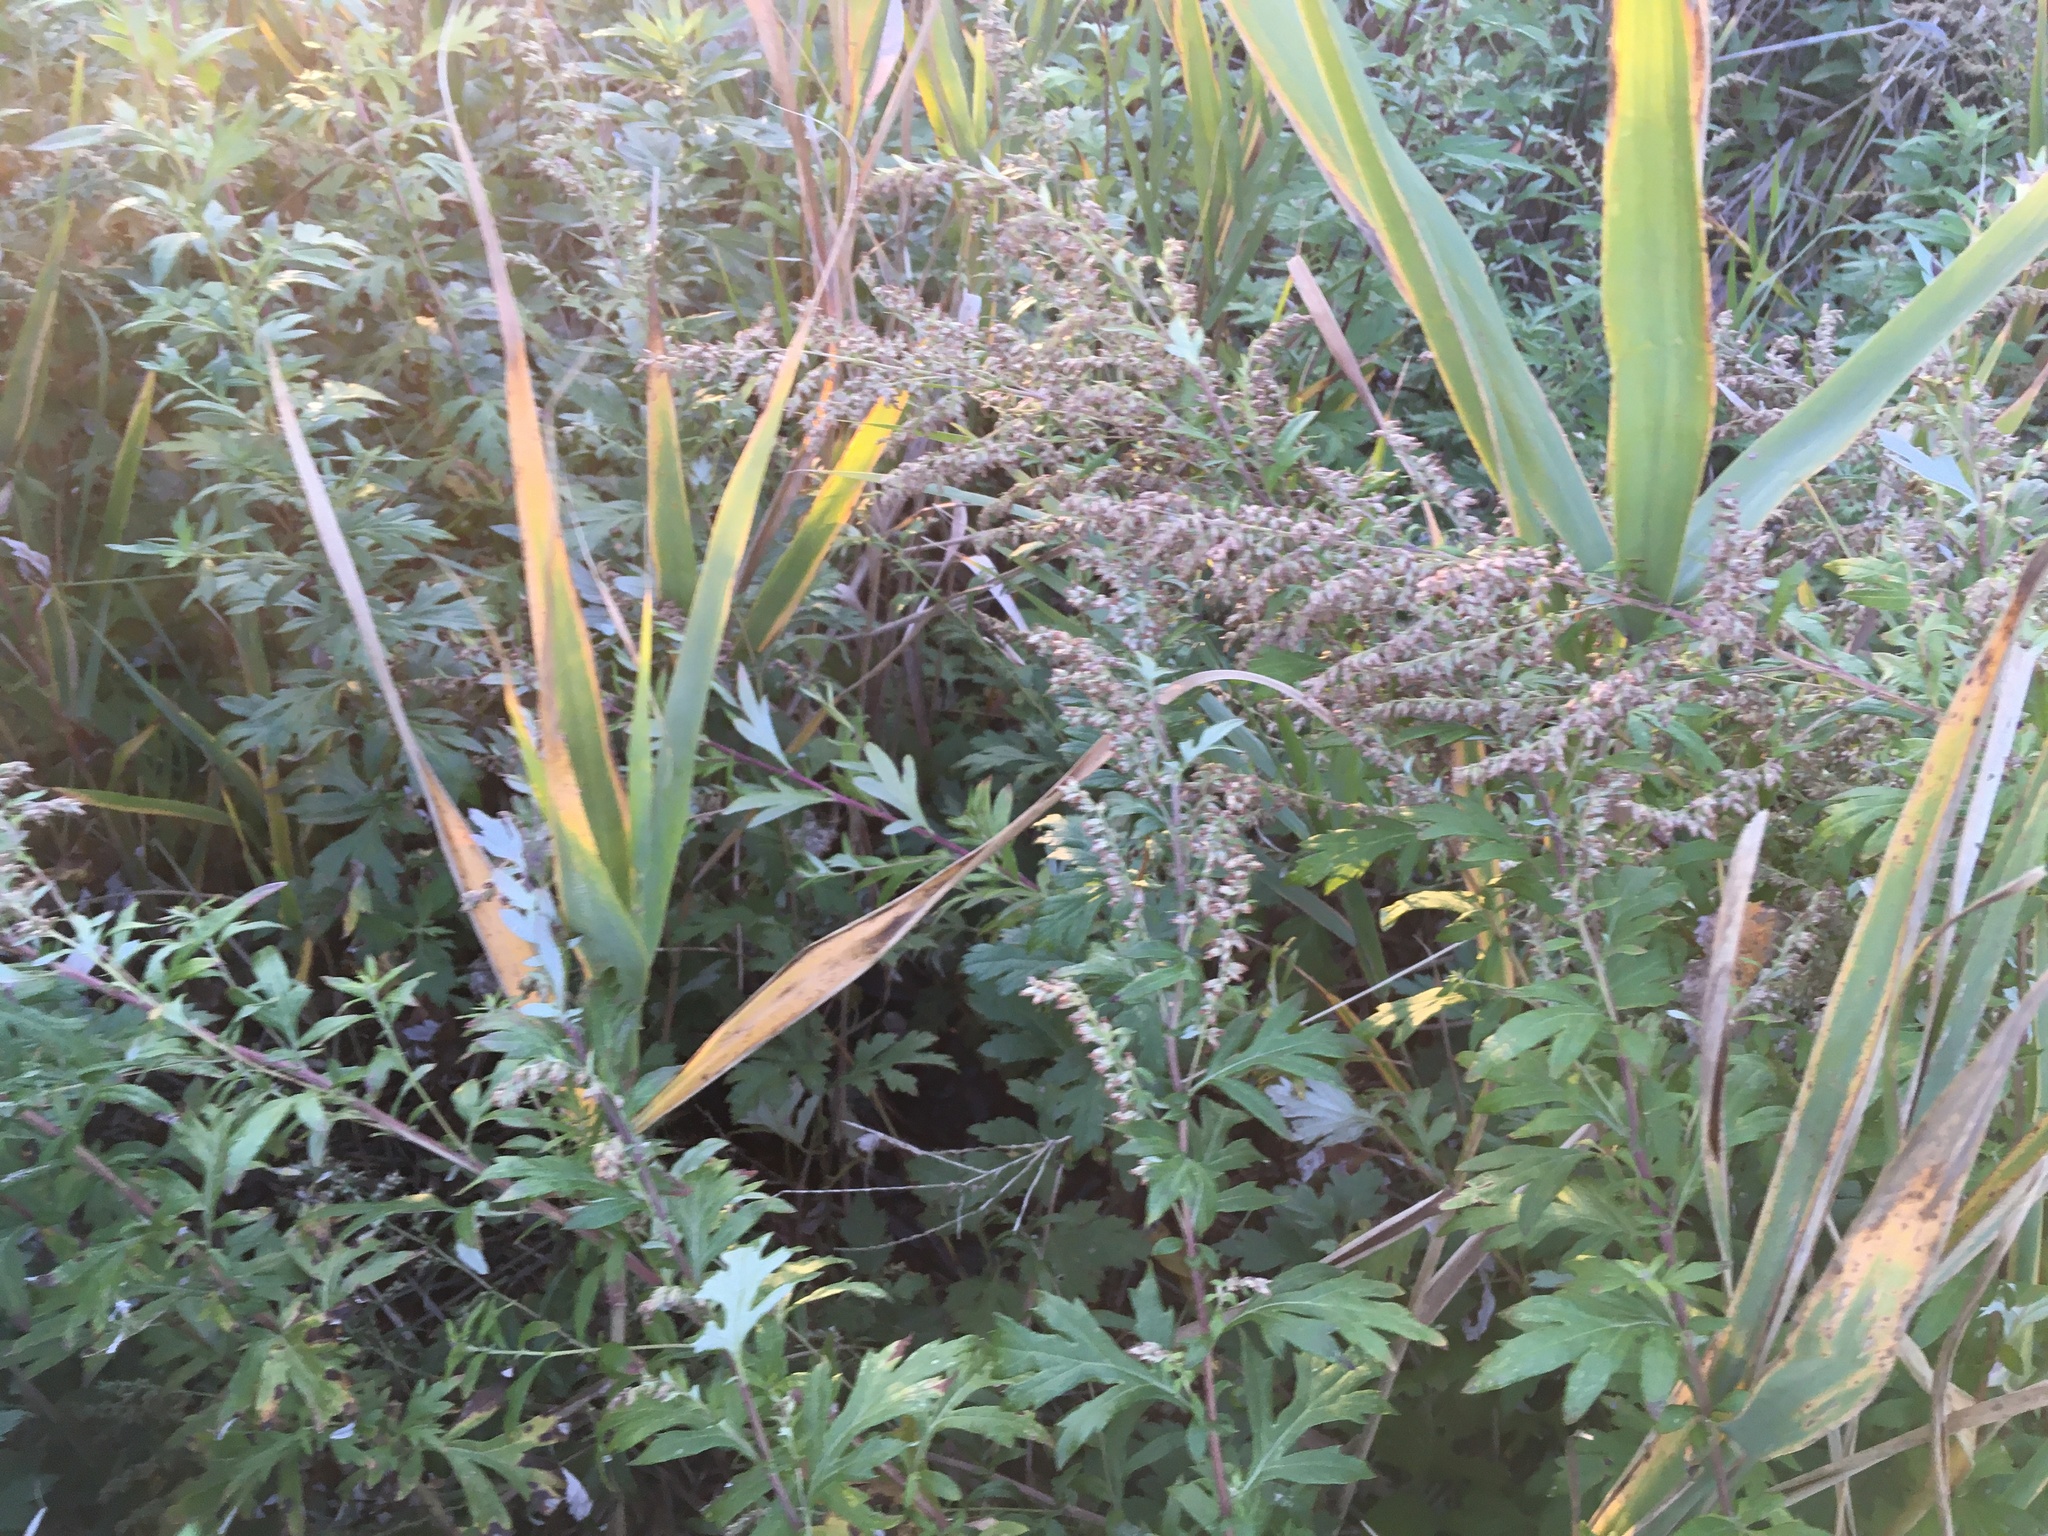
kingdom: Plantae
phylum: Tracheophyta
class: Magnoliopsida
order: Asterales
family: Asteraceae
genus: Artemisia
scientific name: Artemisia vulgaris
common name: Mugwort
